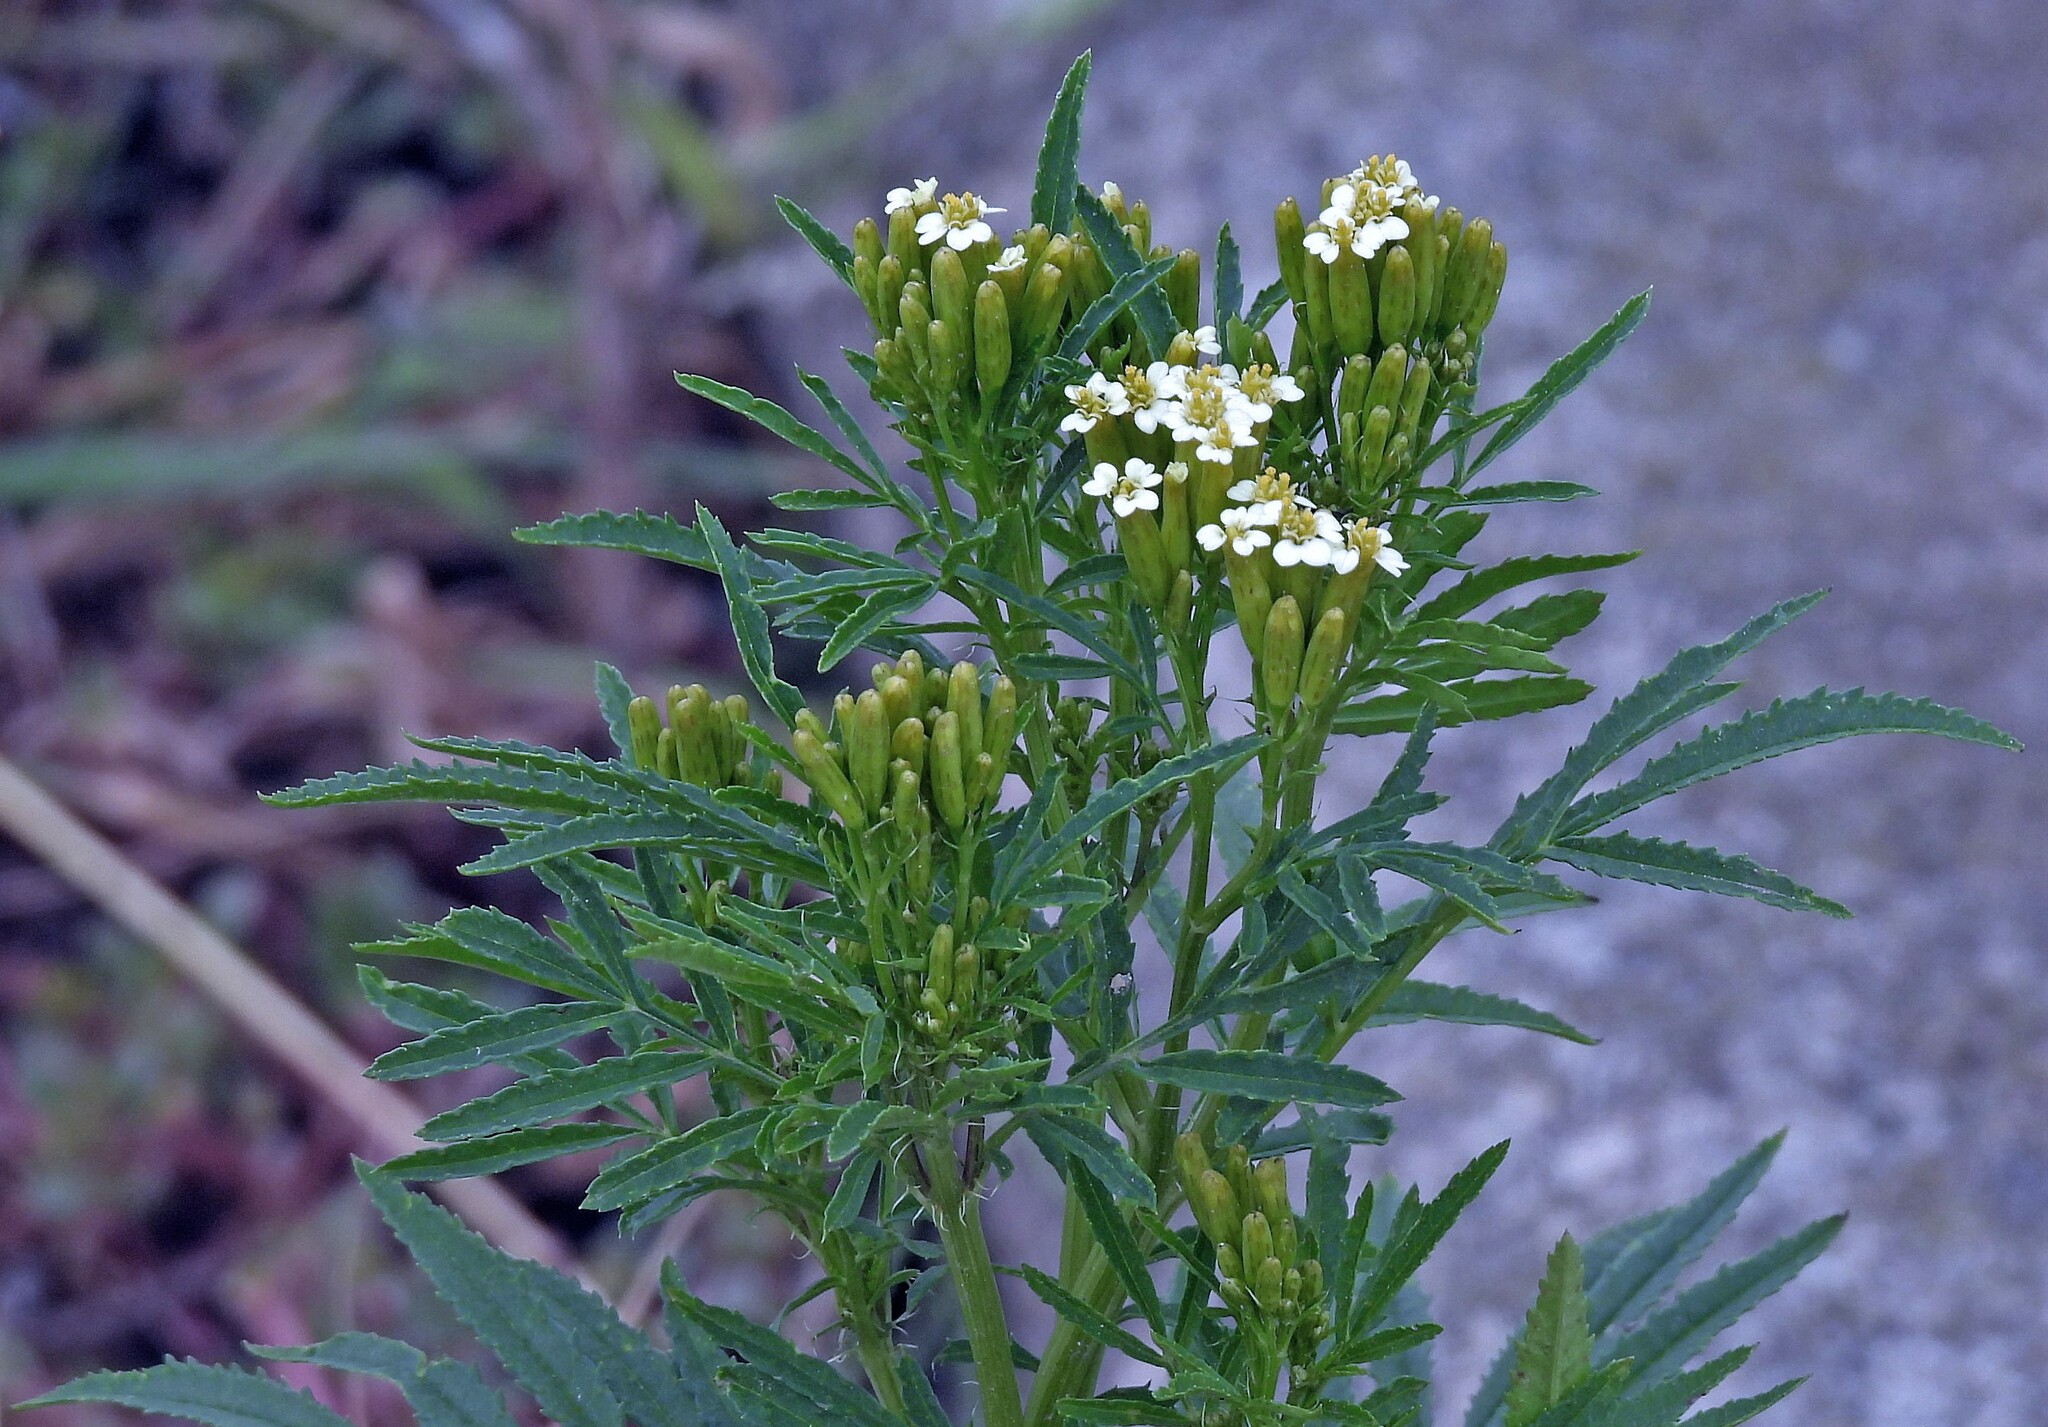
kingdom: Plantae
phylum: Tracheophyta
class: Magnoliopsida
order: Asterales
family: Asteraceae
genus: Tagetes
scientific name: Tagetes minuta
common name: Muster john henry
